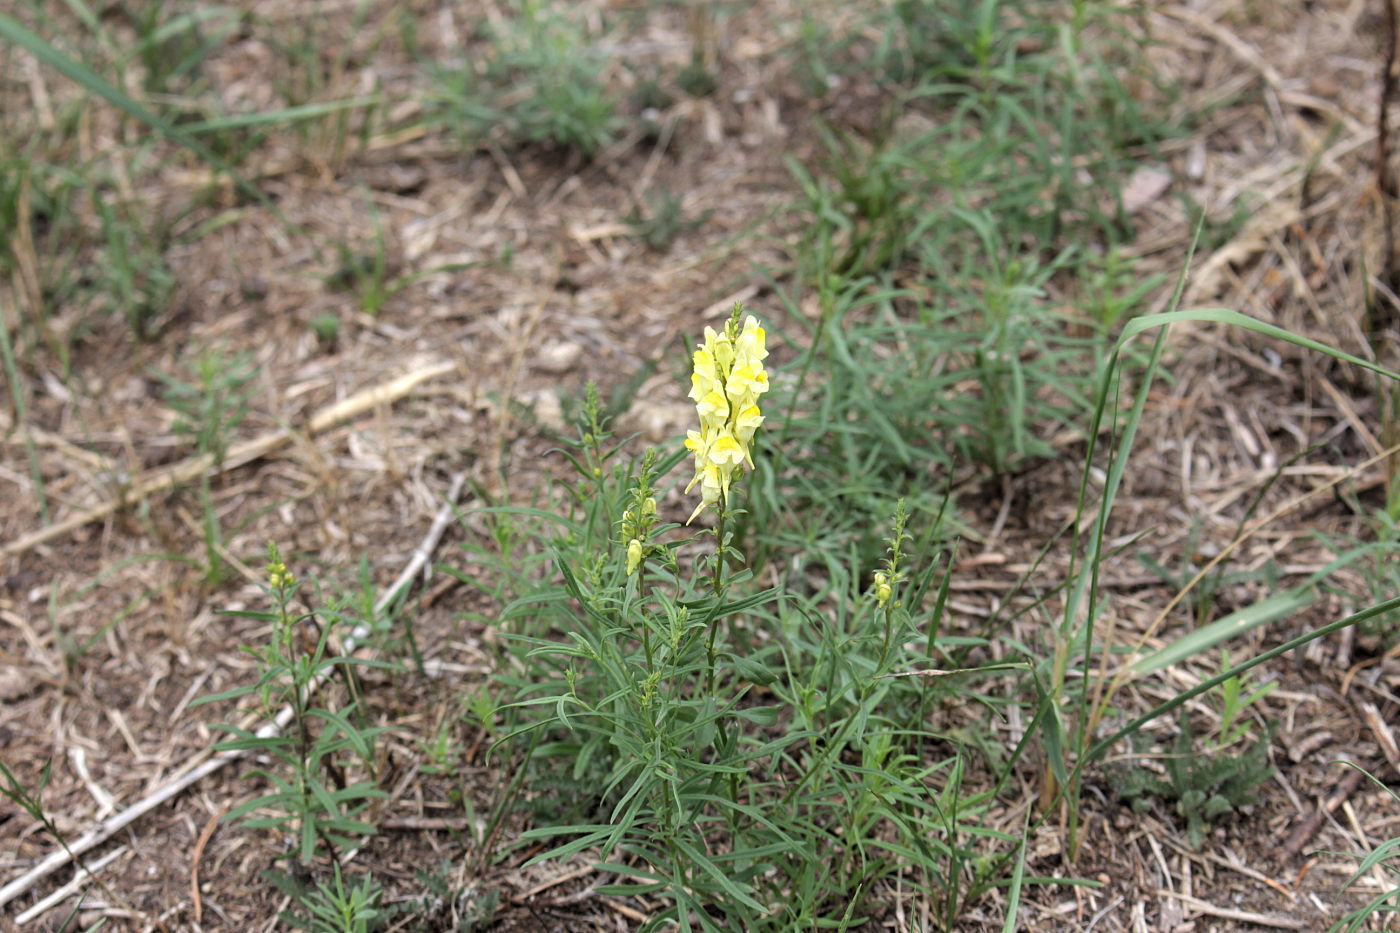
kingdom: Plantae
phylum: Tracheophyta
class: Magnoliopsida
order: Lamiales
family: Plantaginaceae
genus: Linaria
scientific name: Linaria vulgaris
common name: Butter and eggs
